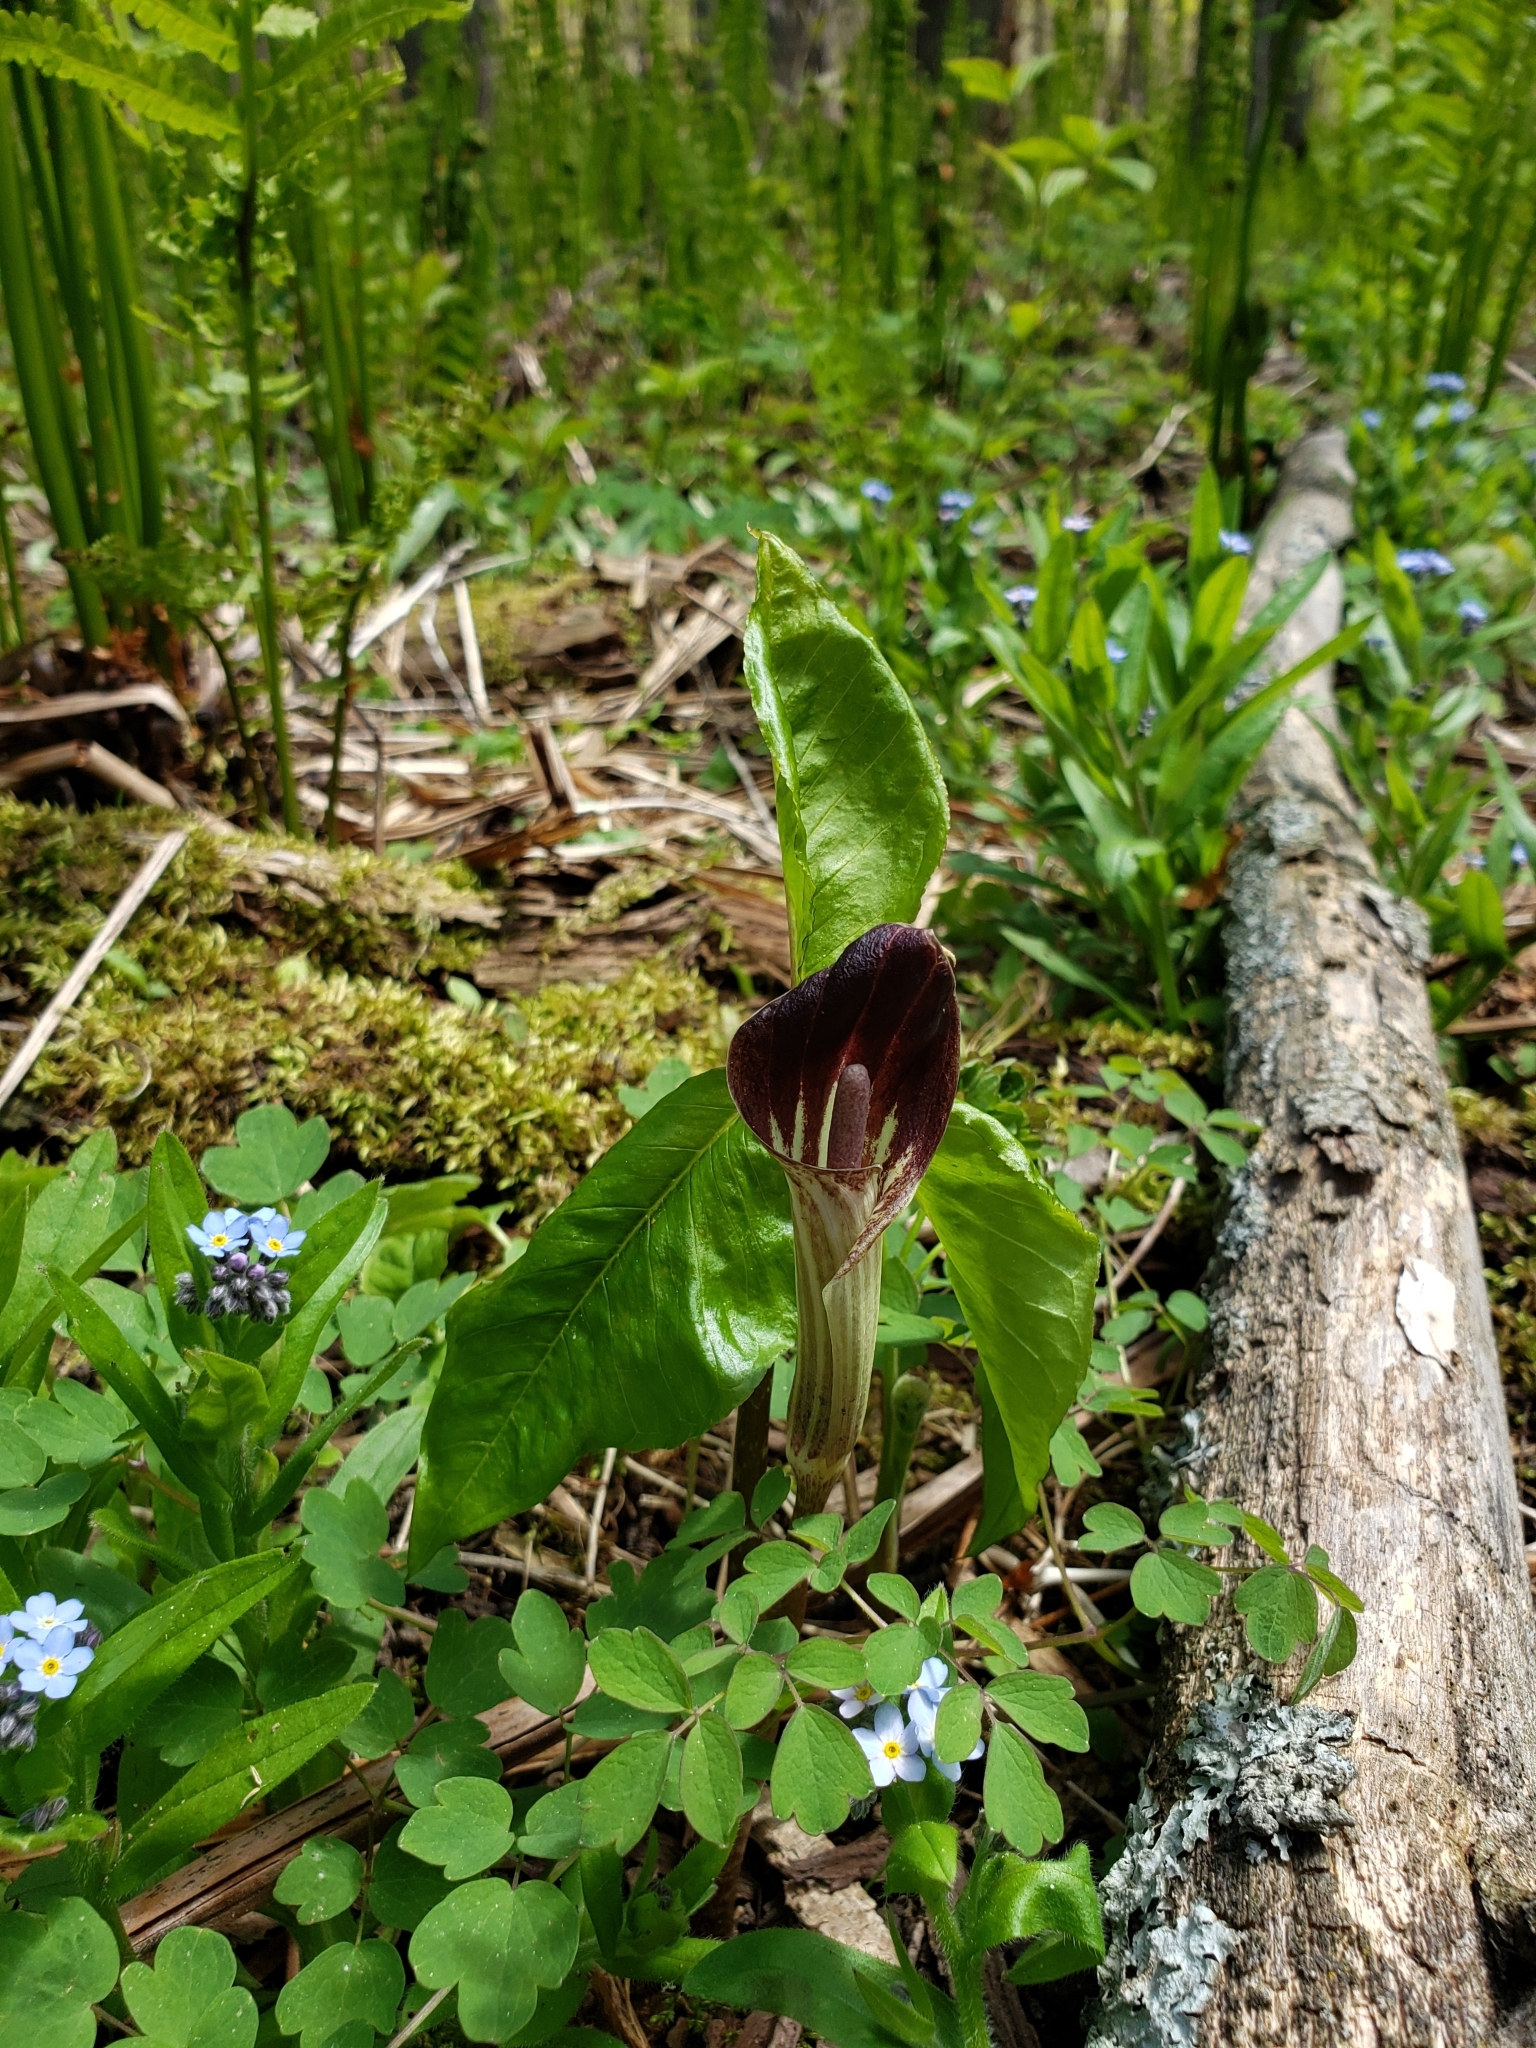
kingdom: Plantae
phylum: Tracheophyta
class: Liliopsida
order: Alismatales
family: Araceae
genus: Arisaema
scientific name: Arisaema triphyllum
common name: Jack-in-the-pulpit
